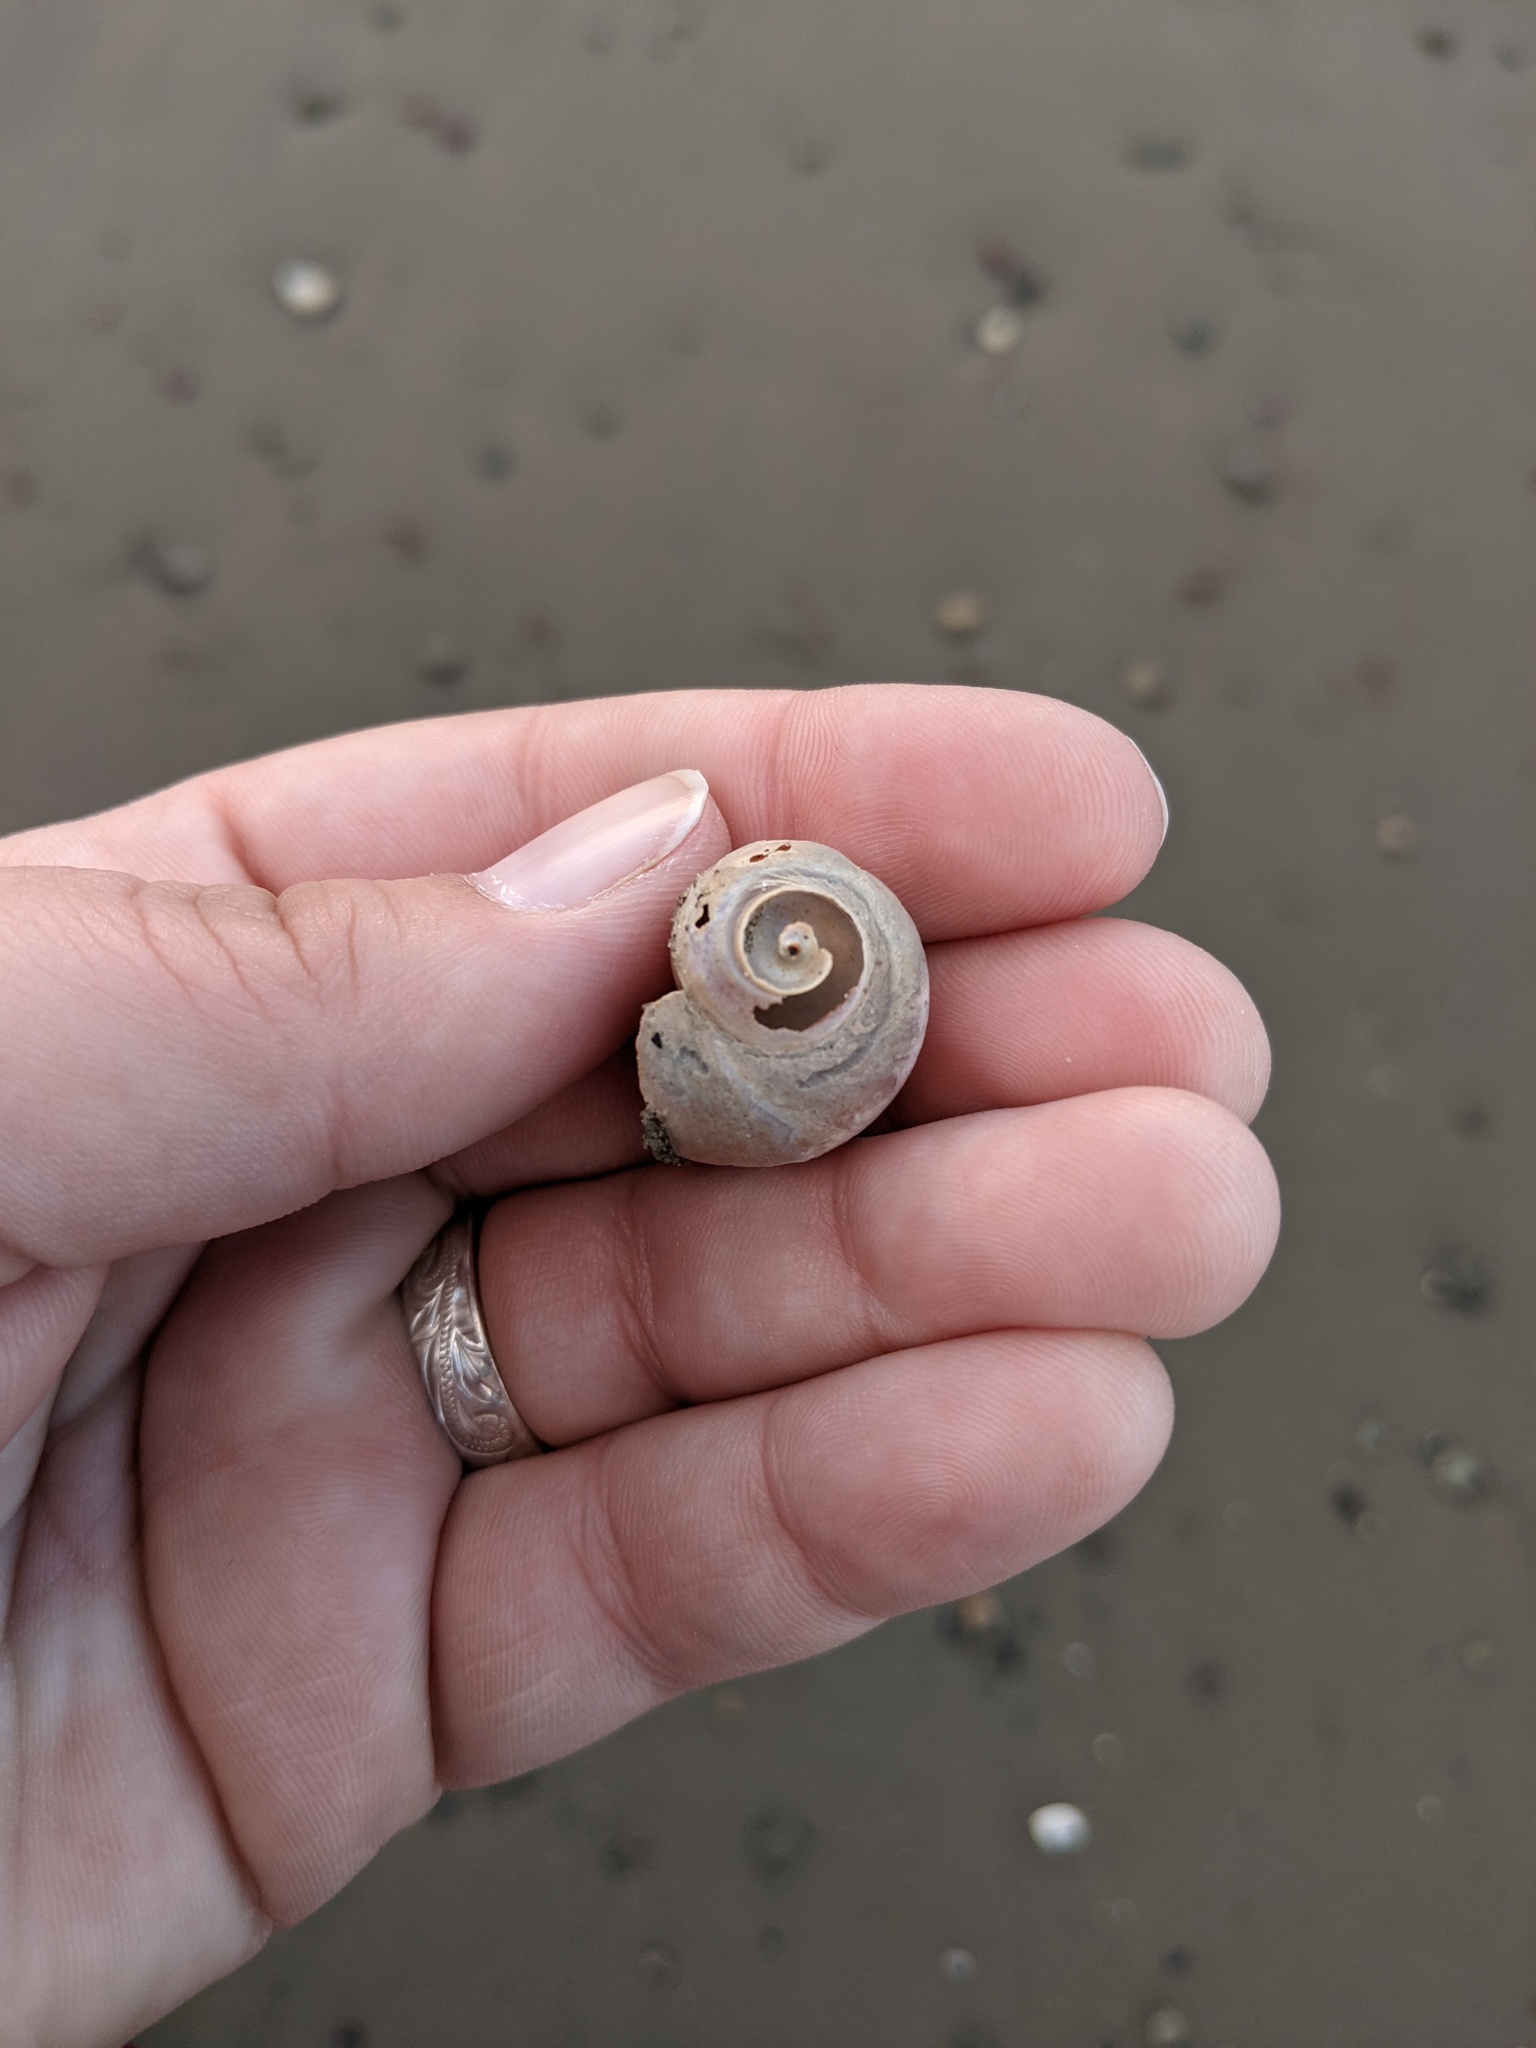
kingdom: Animalia
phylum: Mollusca
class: Gastropoda
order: Littorinimorpha
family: Naticidae
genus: Euspira
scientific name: Euspira heros
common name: Common northern moonsnail
